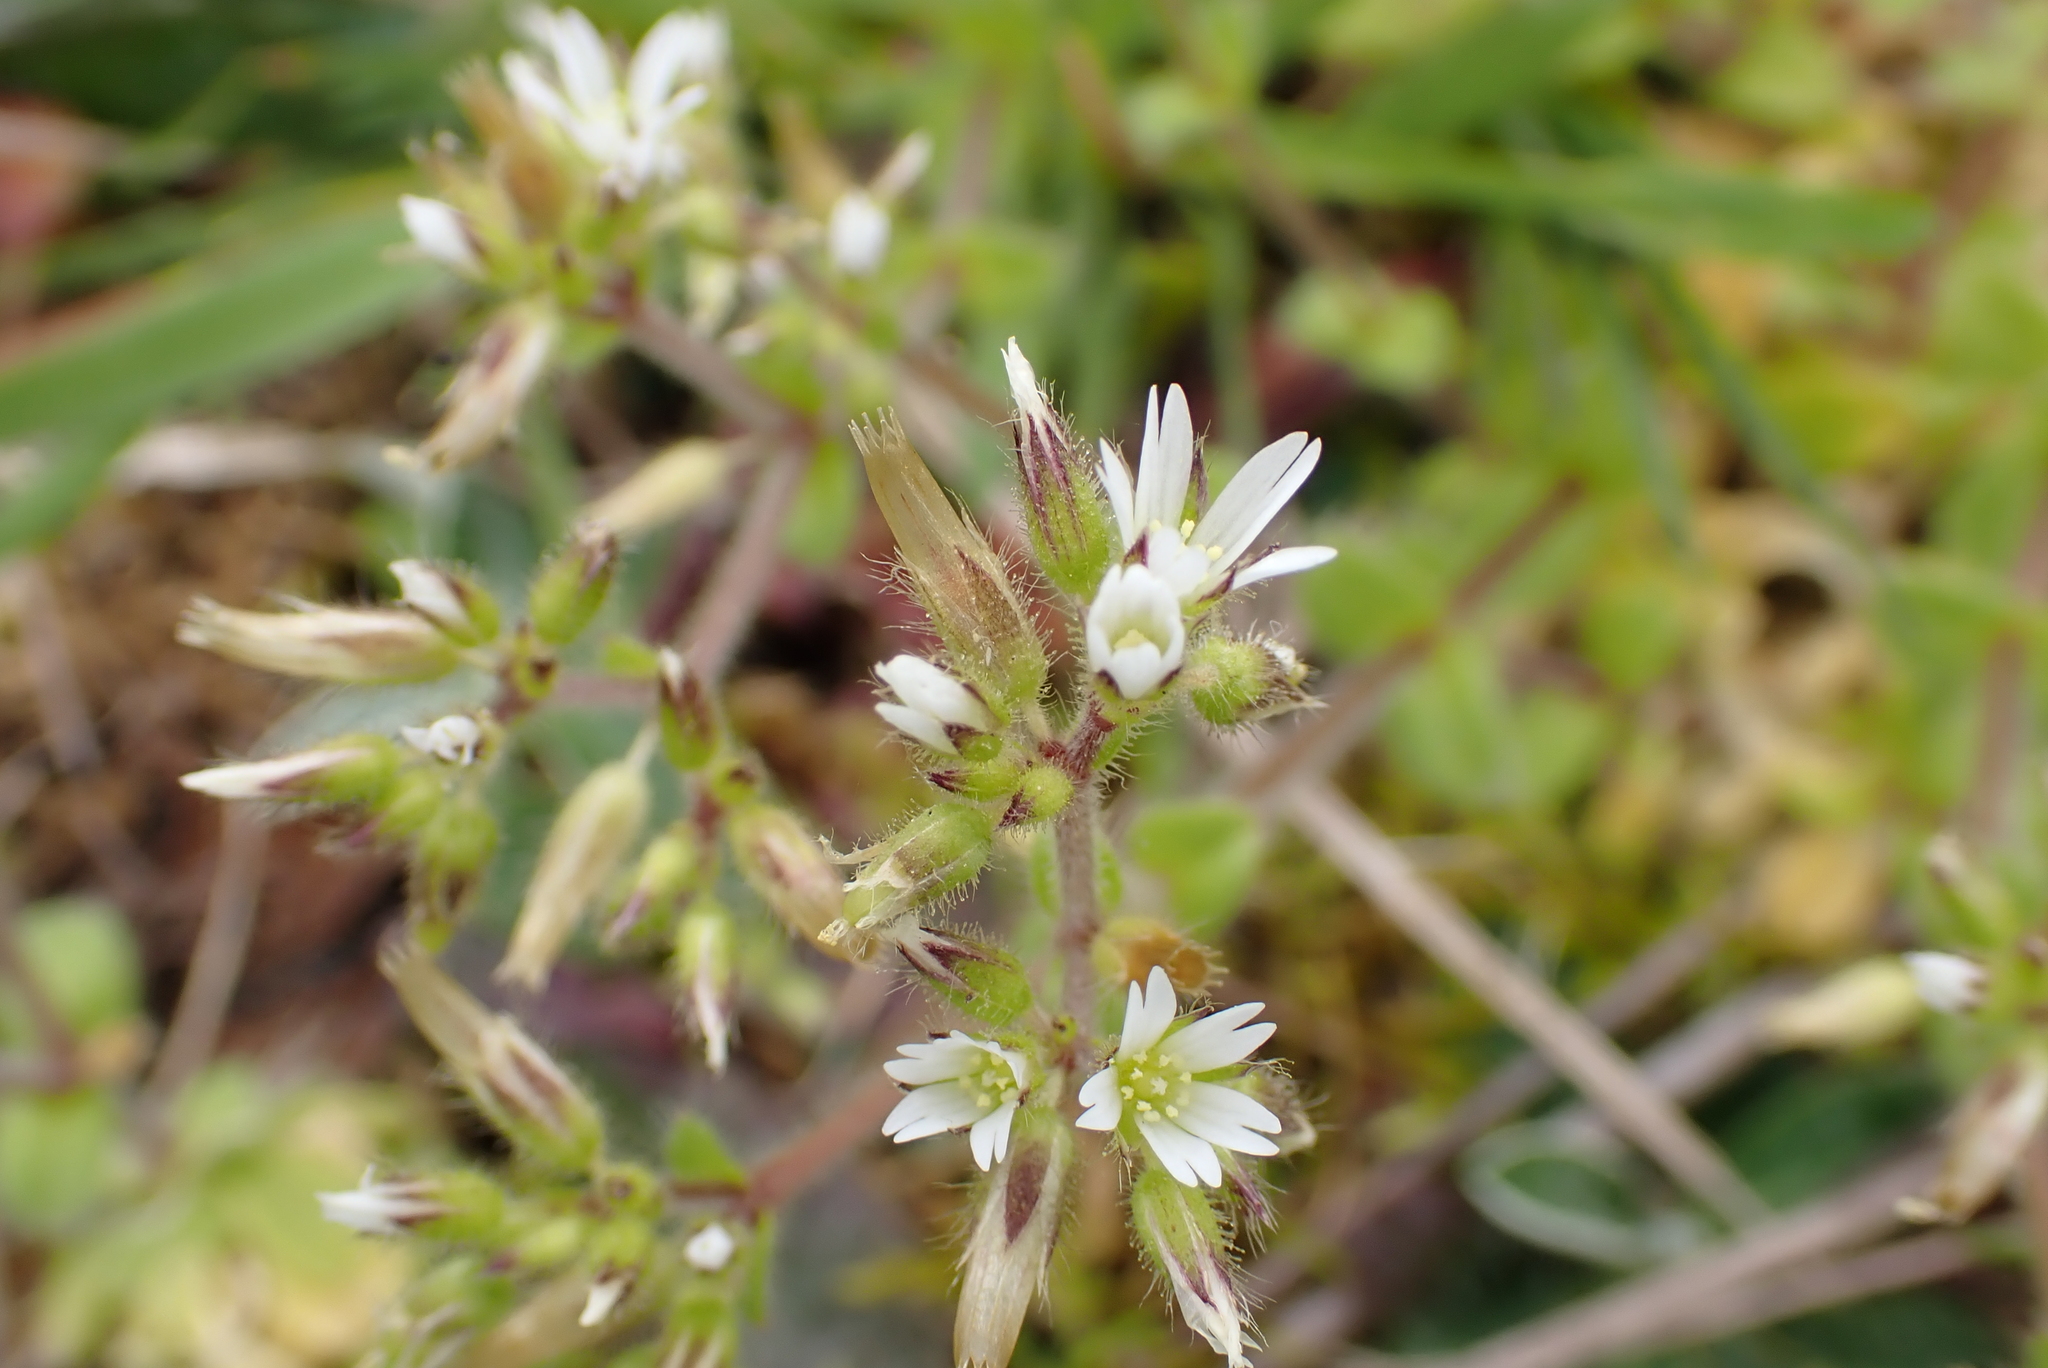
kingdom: Plantae
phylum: Tracheophyta
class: Magnoliopsida
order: Caryophyllales
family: Caryophyllaceae
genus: Cerastium
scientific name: Cerastium glomeratum
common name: Sticky chickweed
